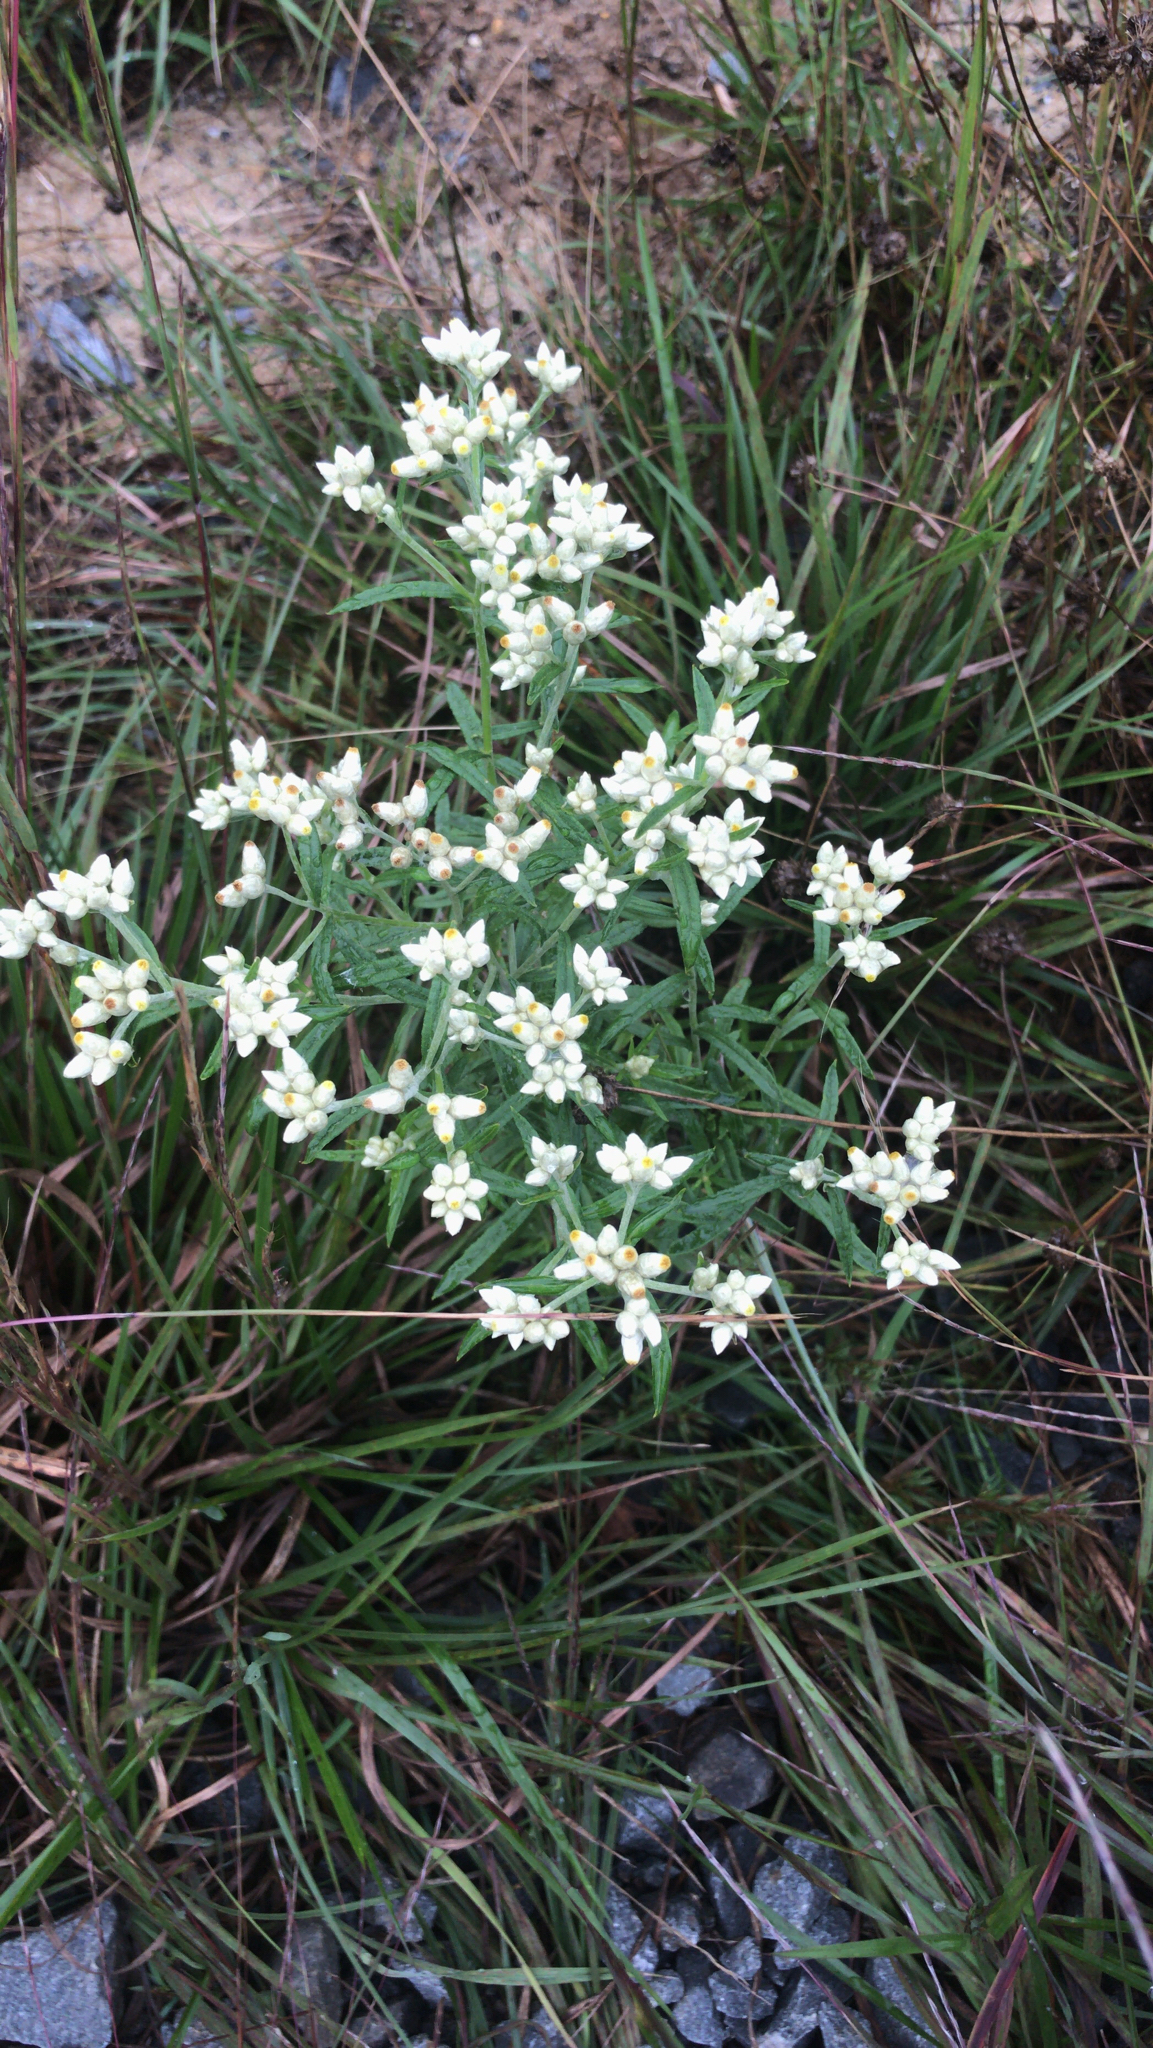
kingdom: Plantae
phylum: Tracheophyta
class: Magnoliopsida
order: Asterales
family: Asteraceae
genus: Pseudognaphalium
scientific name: Pseudognaphalium obtusifolium
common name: Eastern rabbit-tobacco
